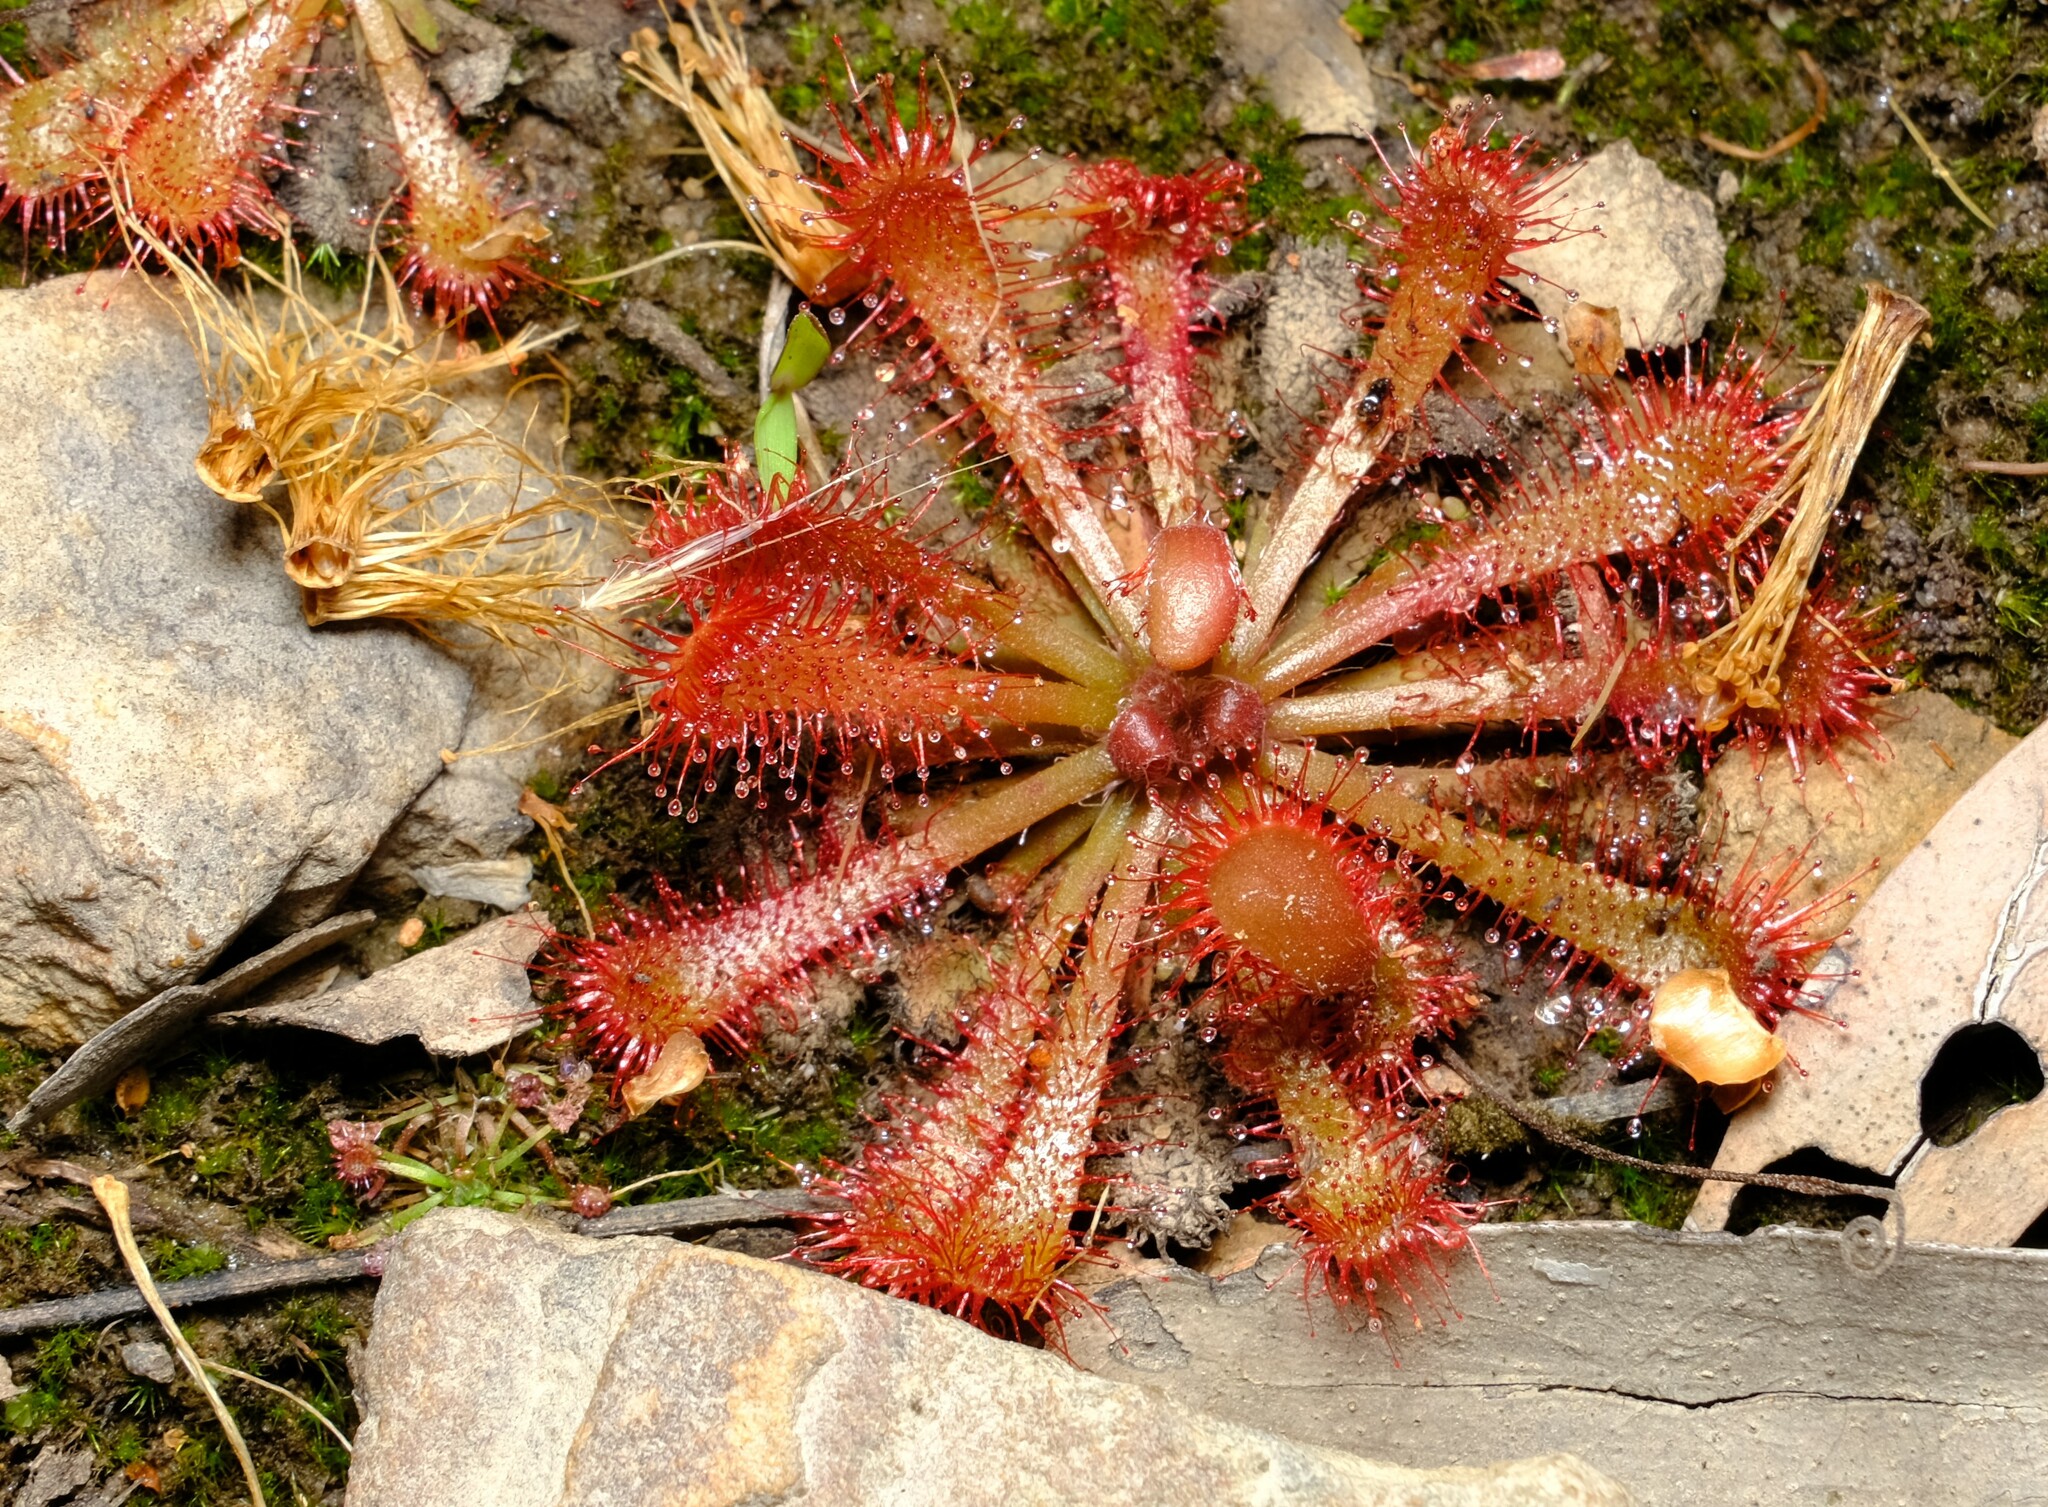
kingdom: Plantae
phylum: Tracheophyta
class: Magnoliopsida
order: Caryophyllales
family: Droseraceae
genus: Drosera
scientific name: Drosera spatulata
